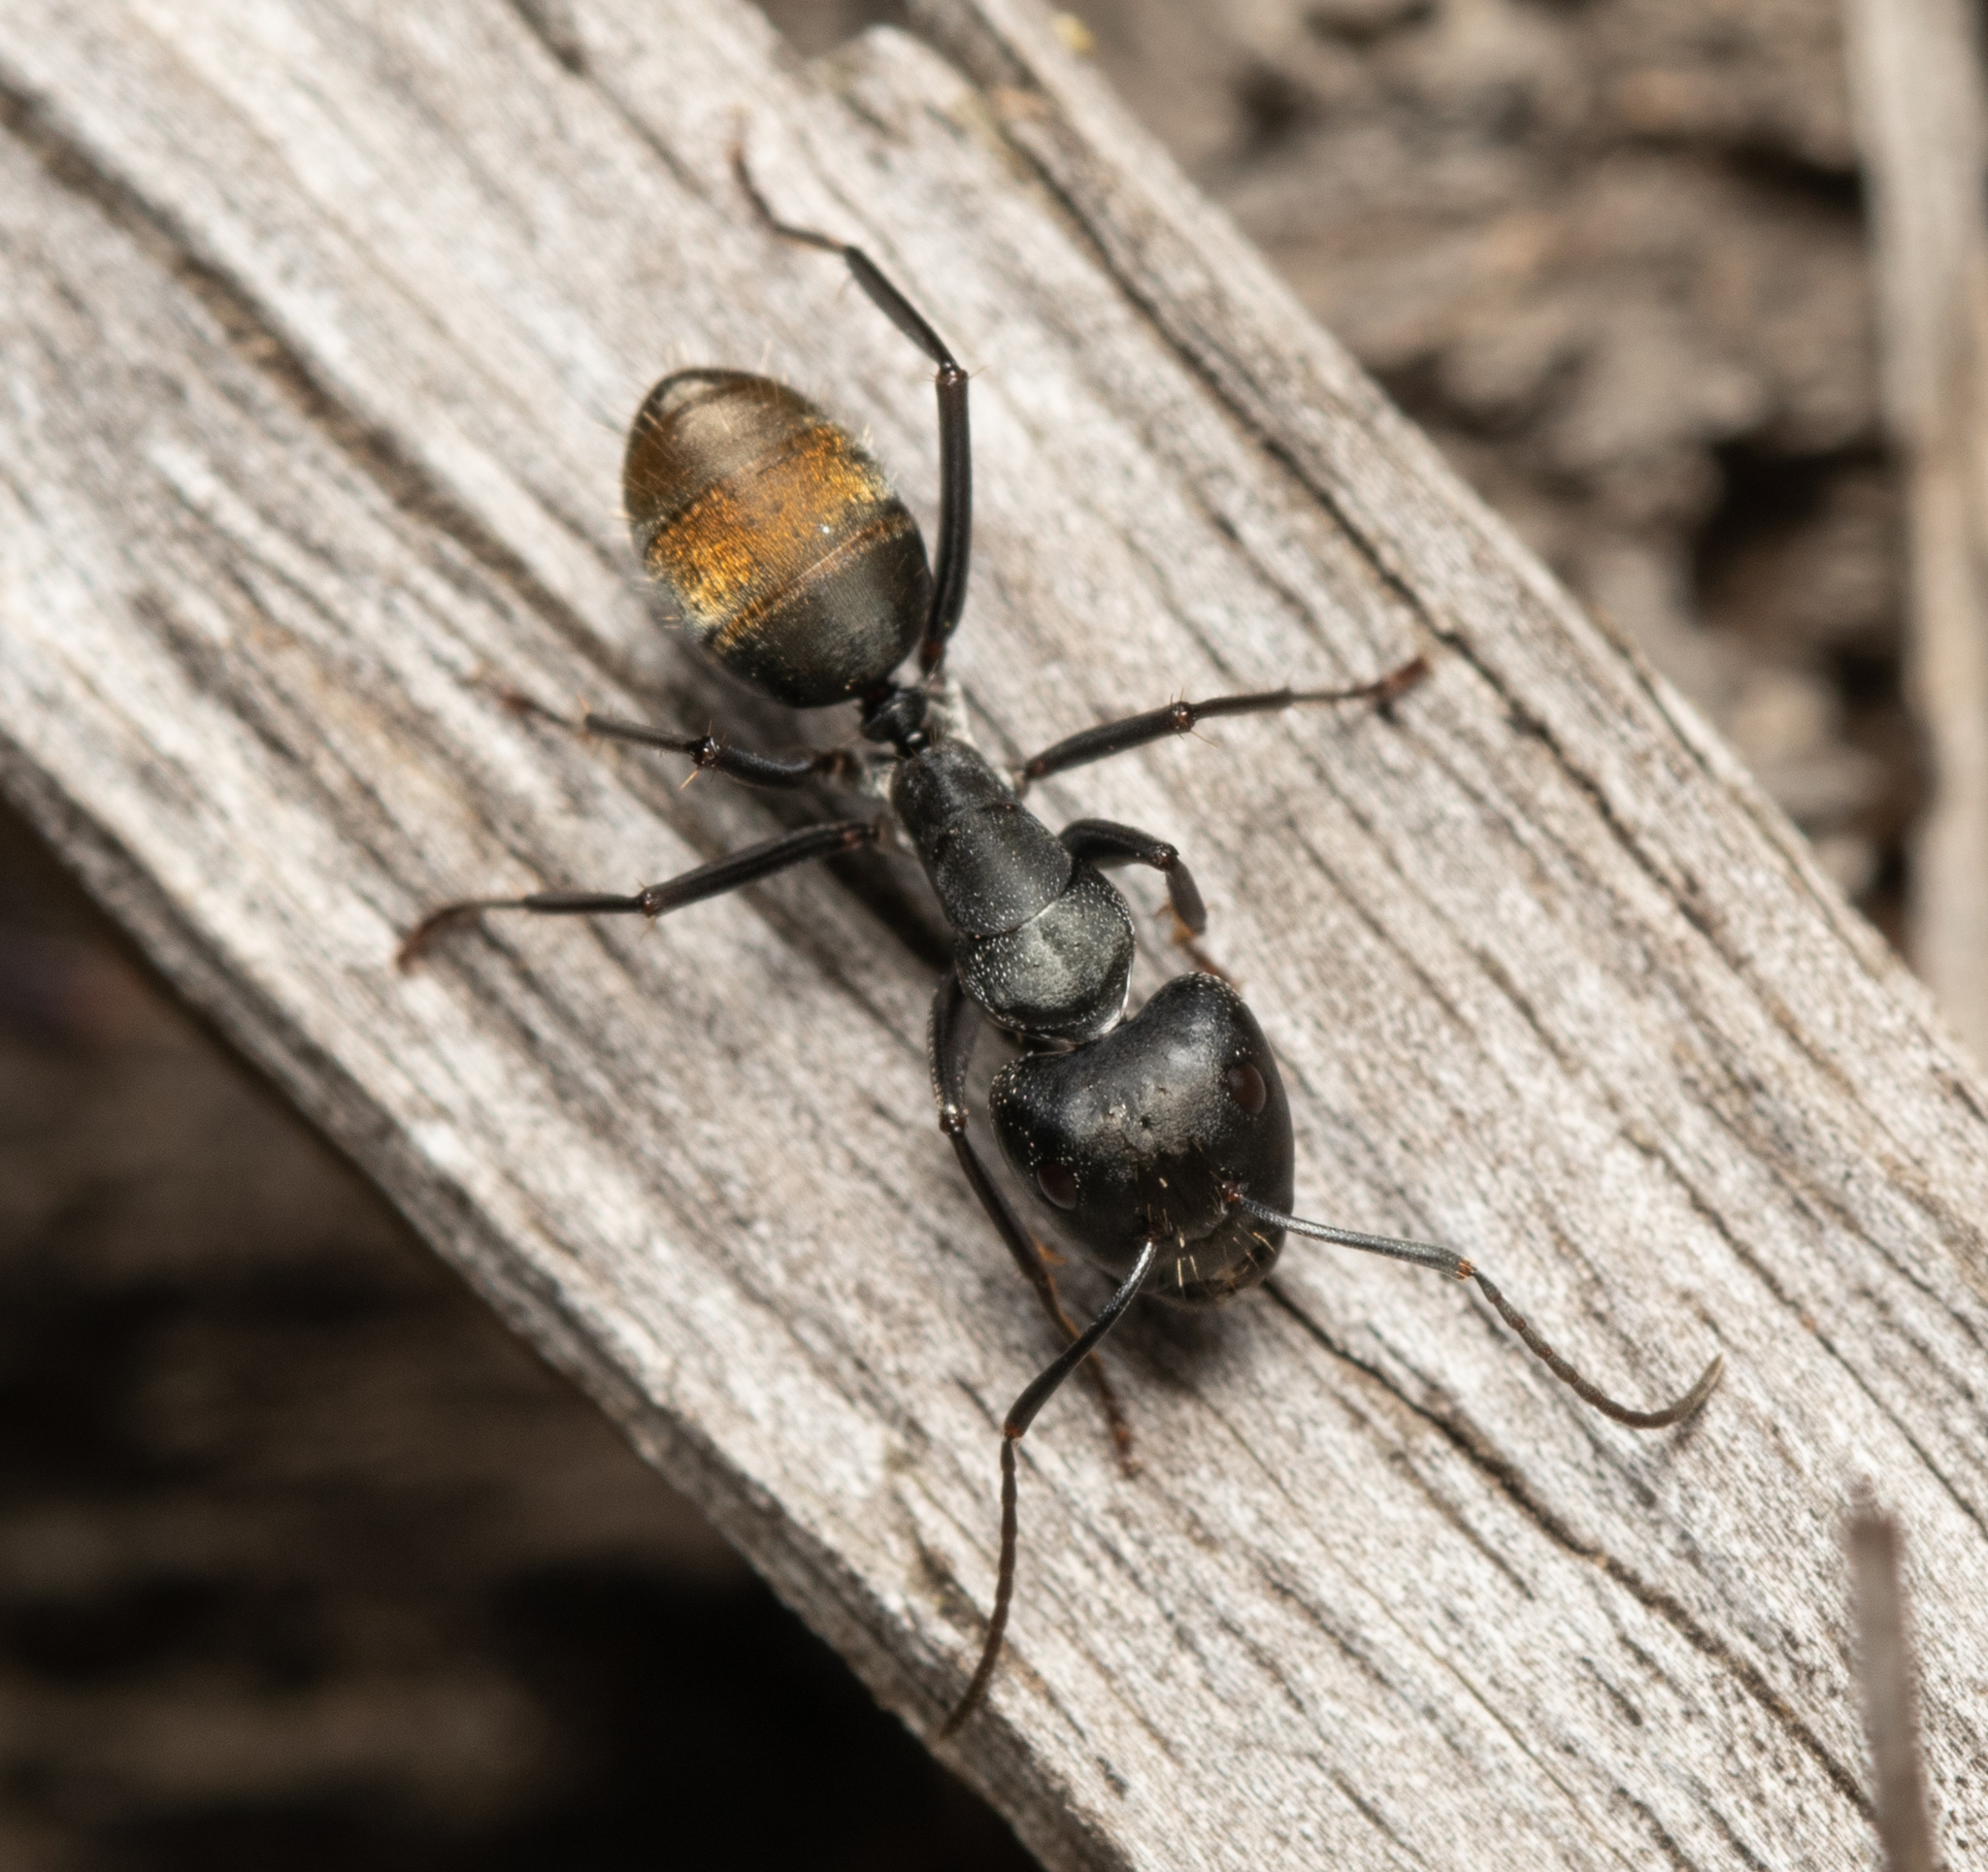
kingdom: Animalia
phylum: Arthropoda
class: Insecta
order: Hymenoptera
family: Formicidae
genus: Camponotus
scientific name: Camponotus aeneopilosus
